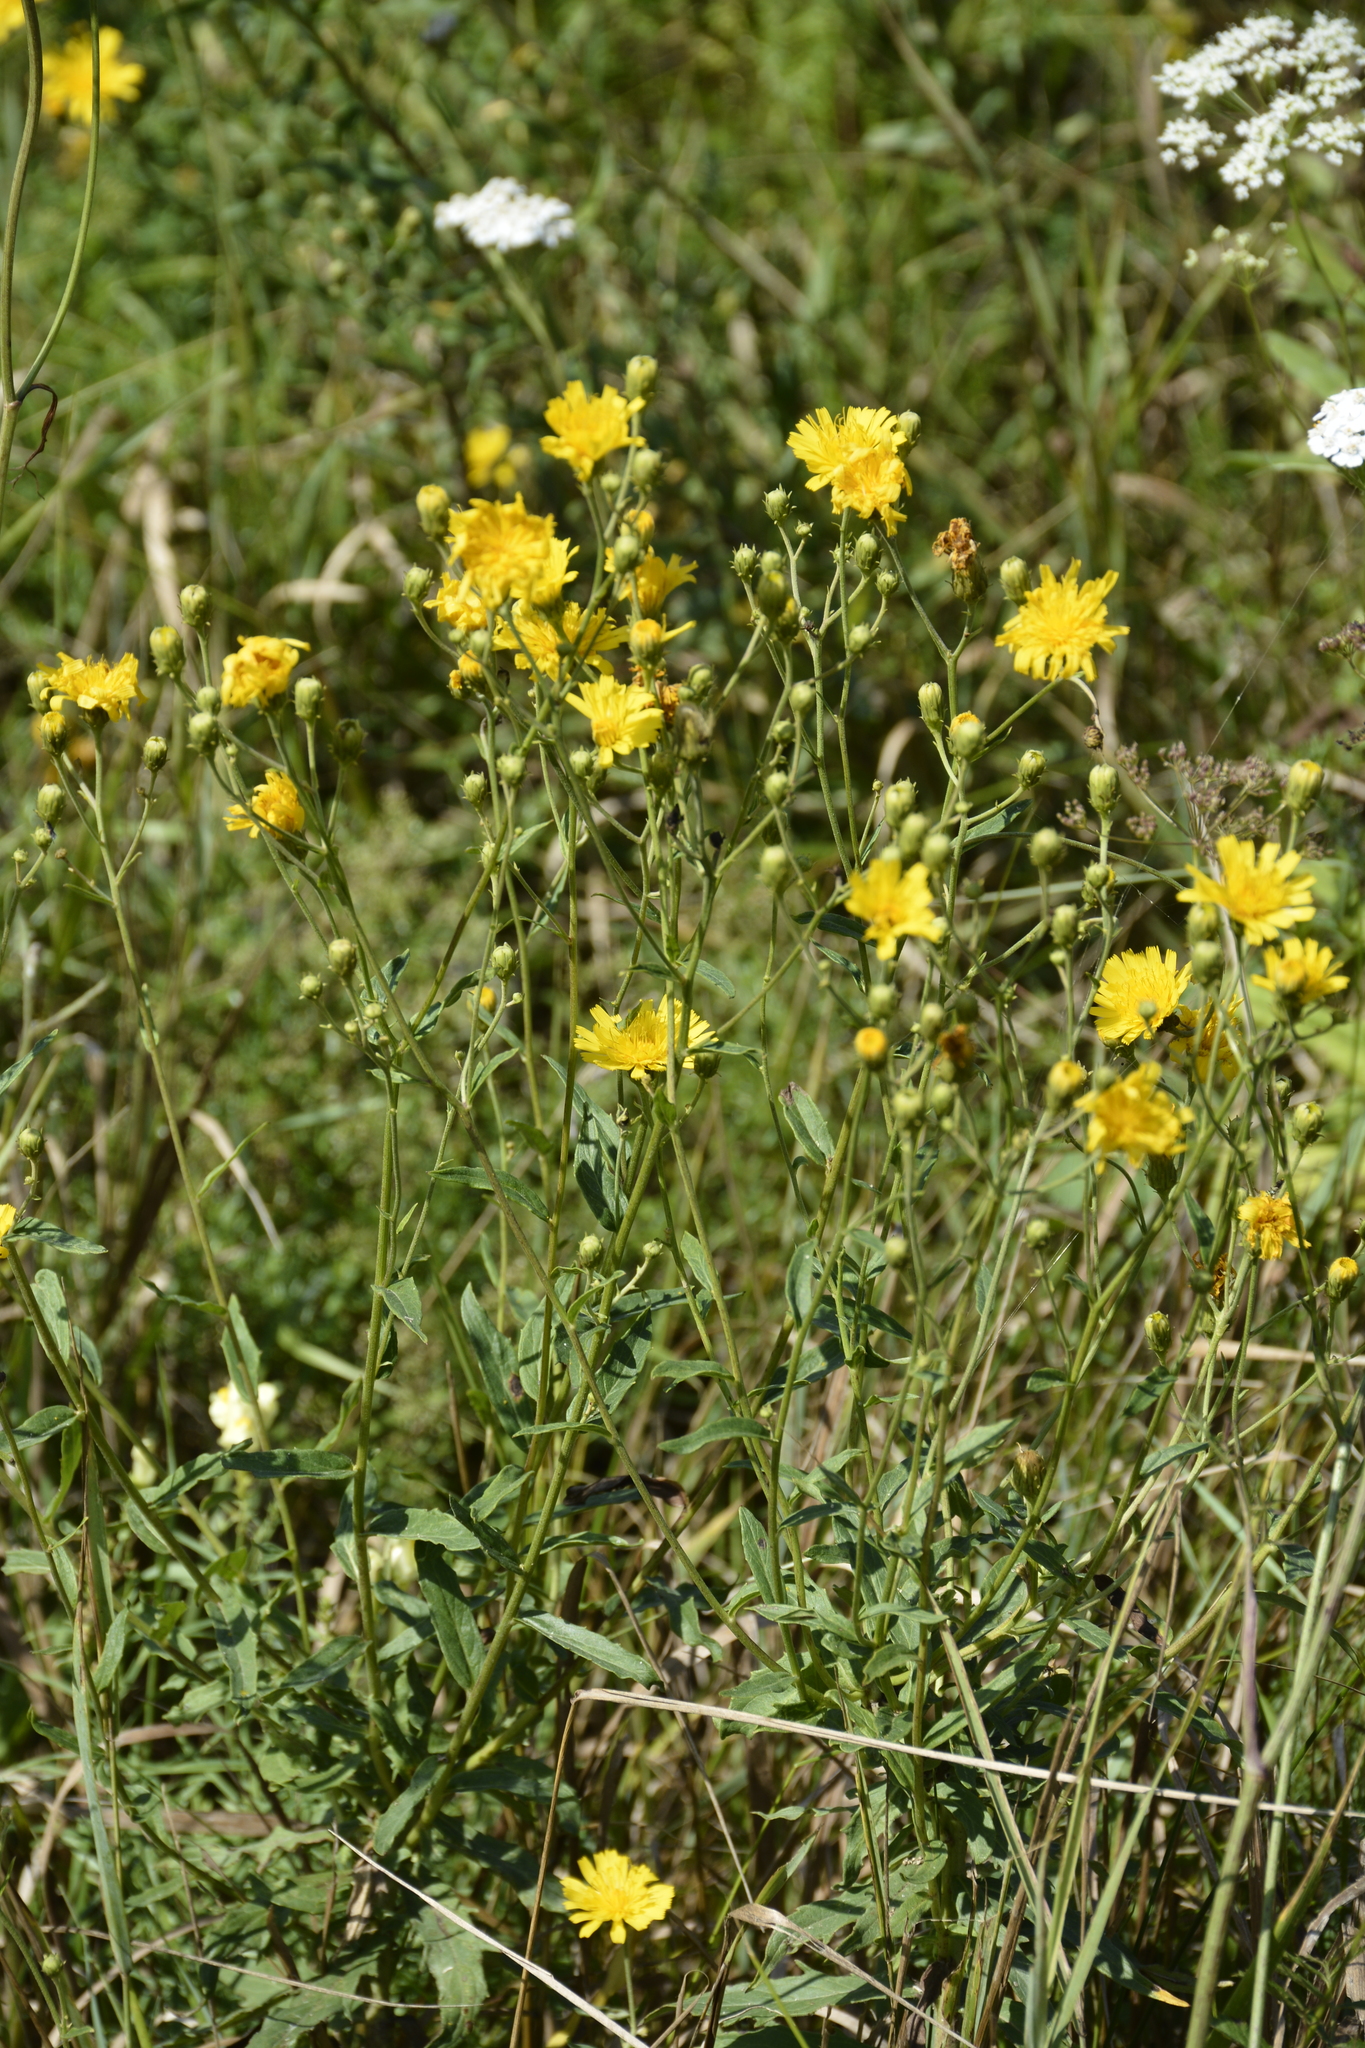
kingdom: Plantae
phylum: Tracheophyta
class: Magnoliopsida
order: Asterales
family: Asteraceae
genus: Hieracium
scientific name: Hieracium umbellatum
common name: Northern hawkweed
